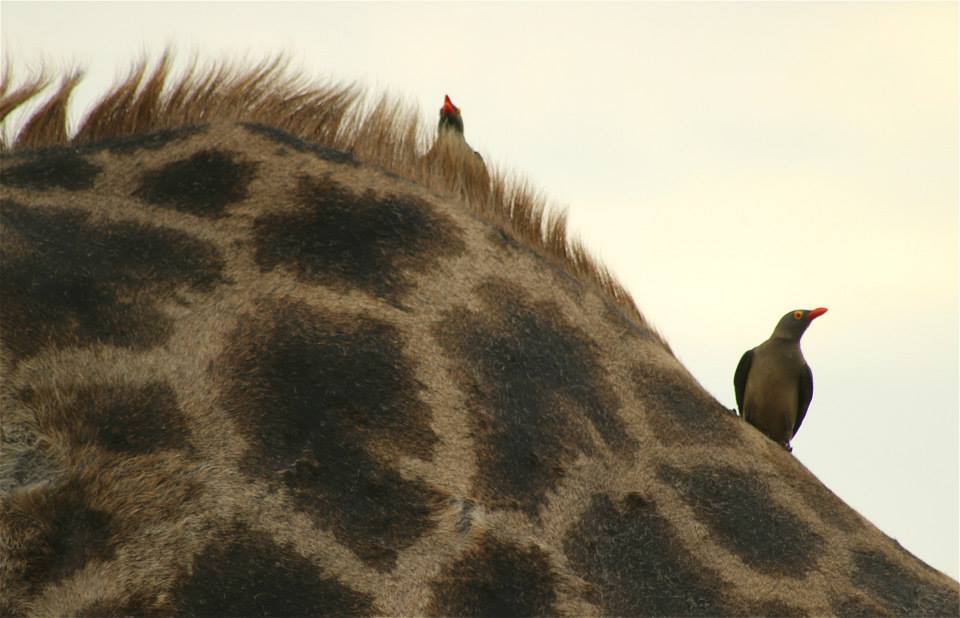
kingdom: Animalia
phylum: Chordata
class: Aves
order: Passeriformes
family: Buphagidae
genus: Buphagus
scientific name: Buphagus erythrorhynchus
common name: Red-billed oxpecker
